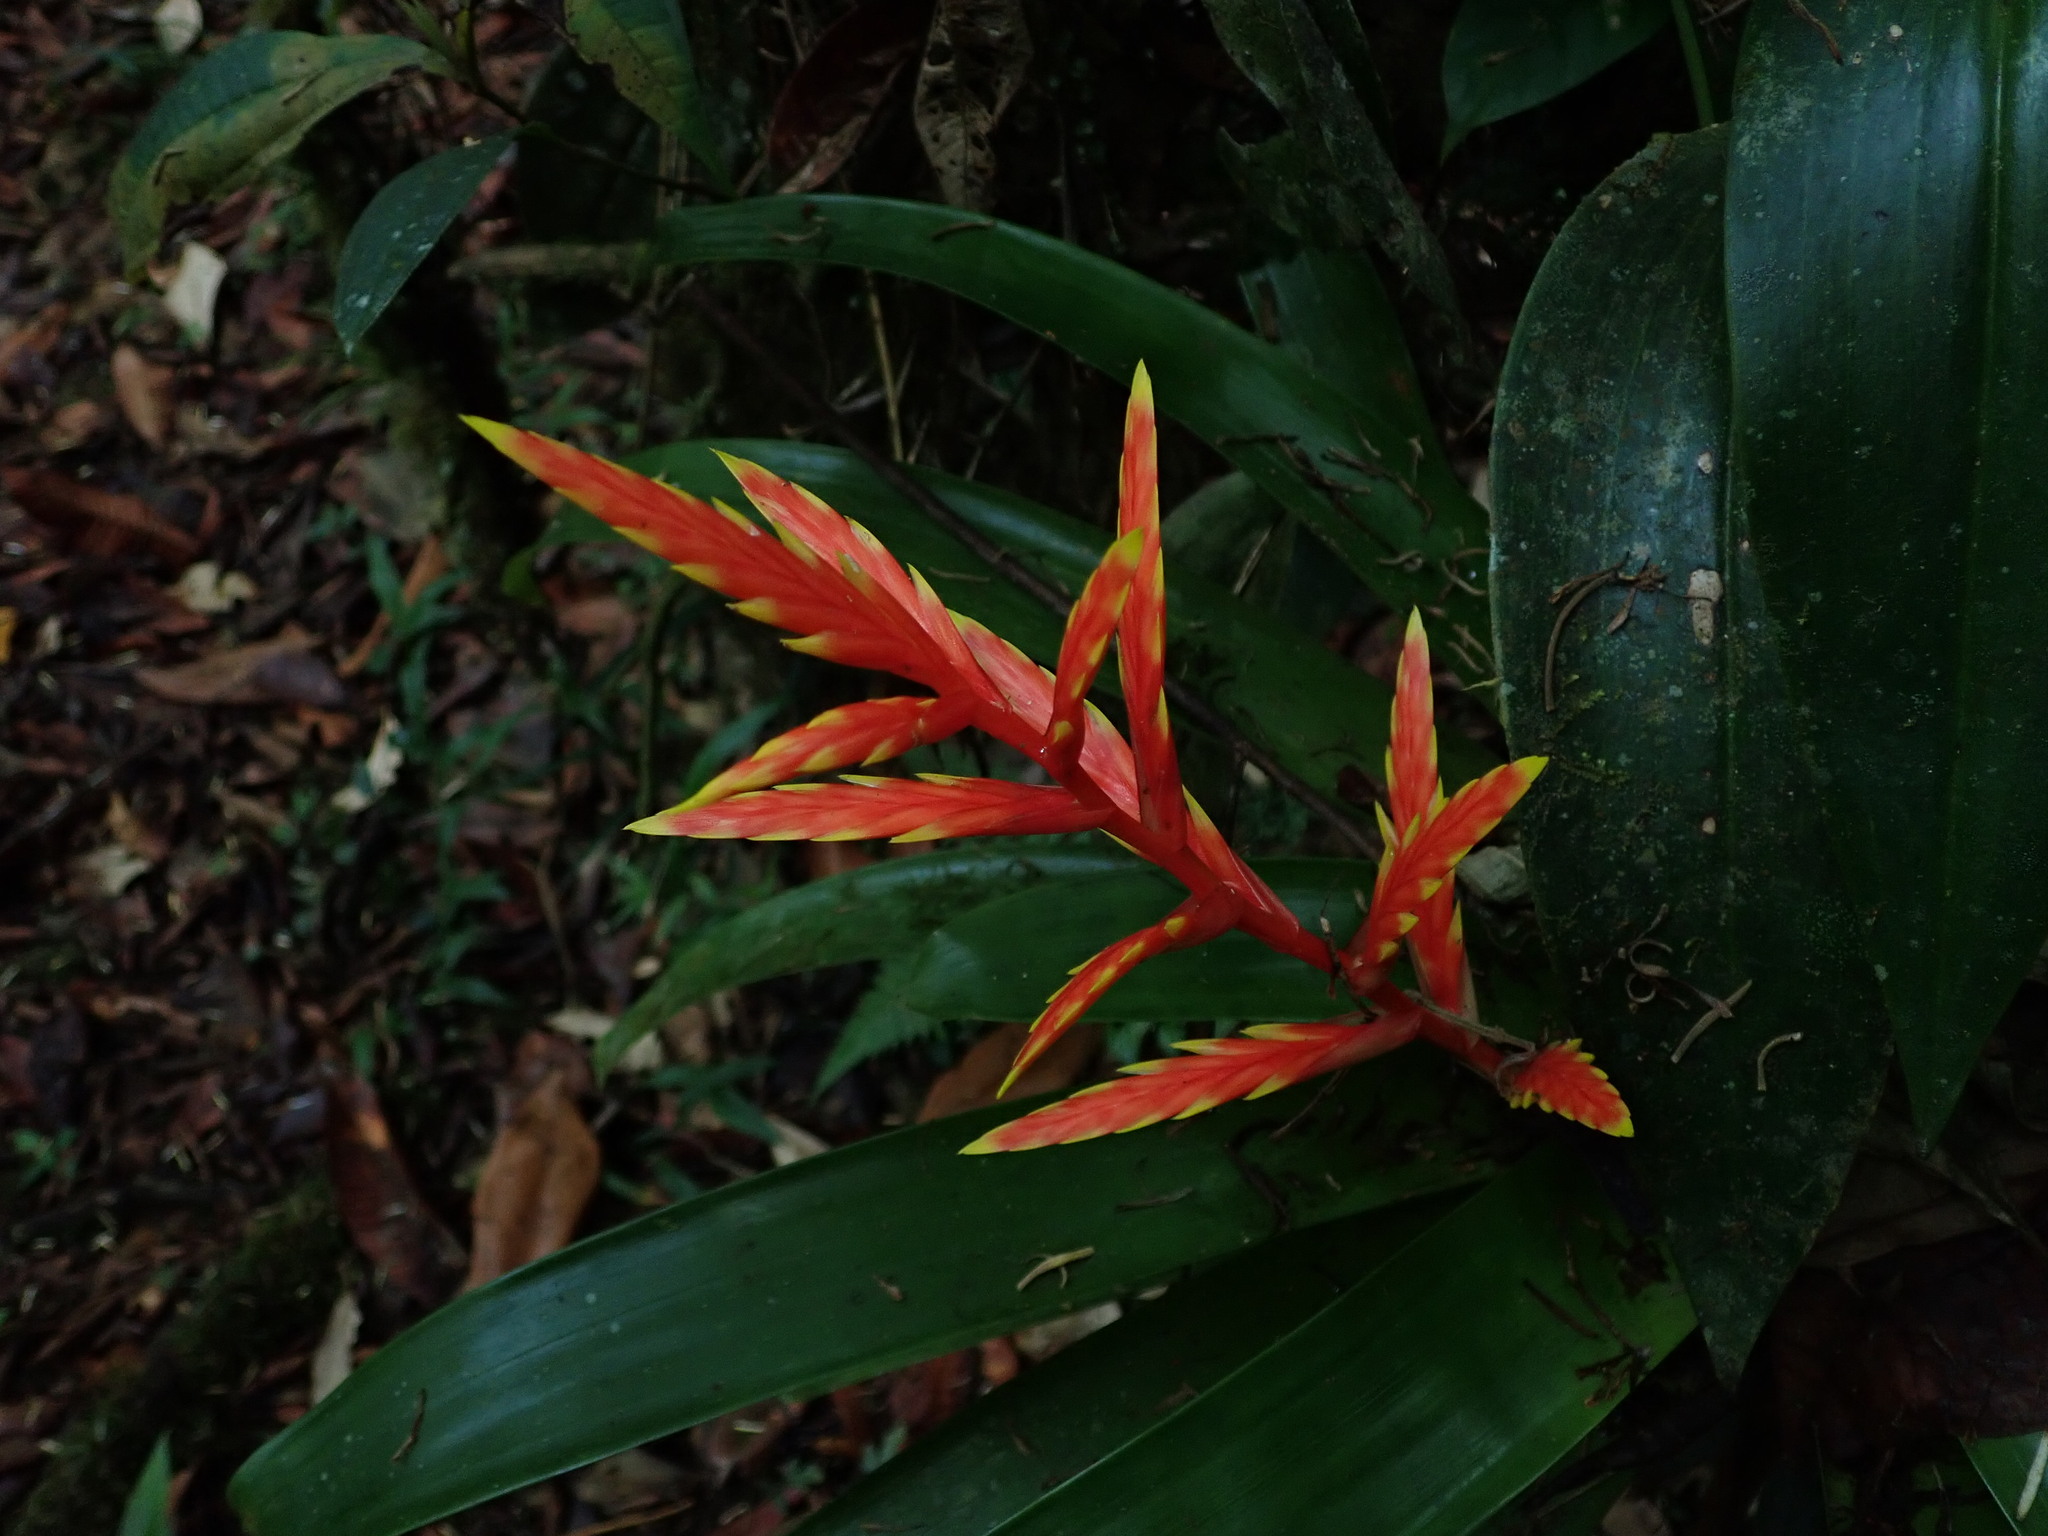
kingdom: Plantae
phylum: Tracheophyta
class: Liliopsida
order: Poales
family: Bromeliaceae
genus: Vriesea
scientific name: Vriesea zamorensis
